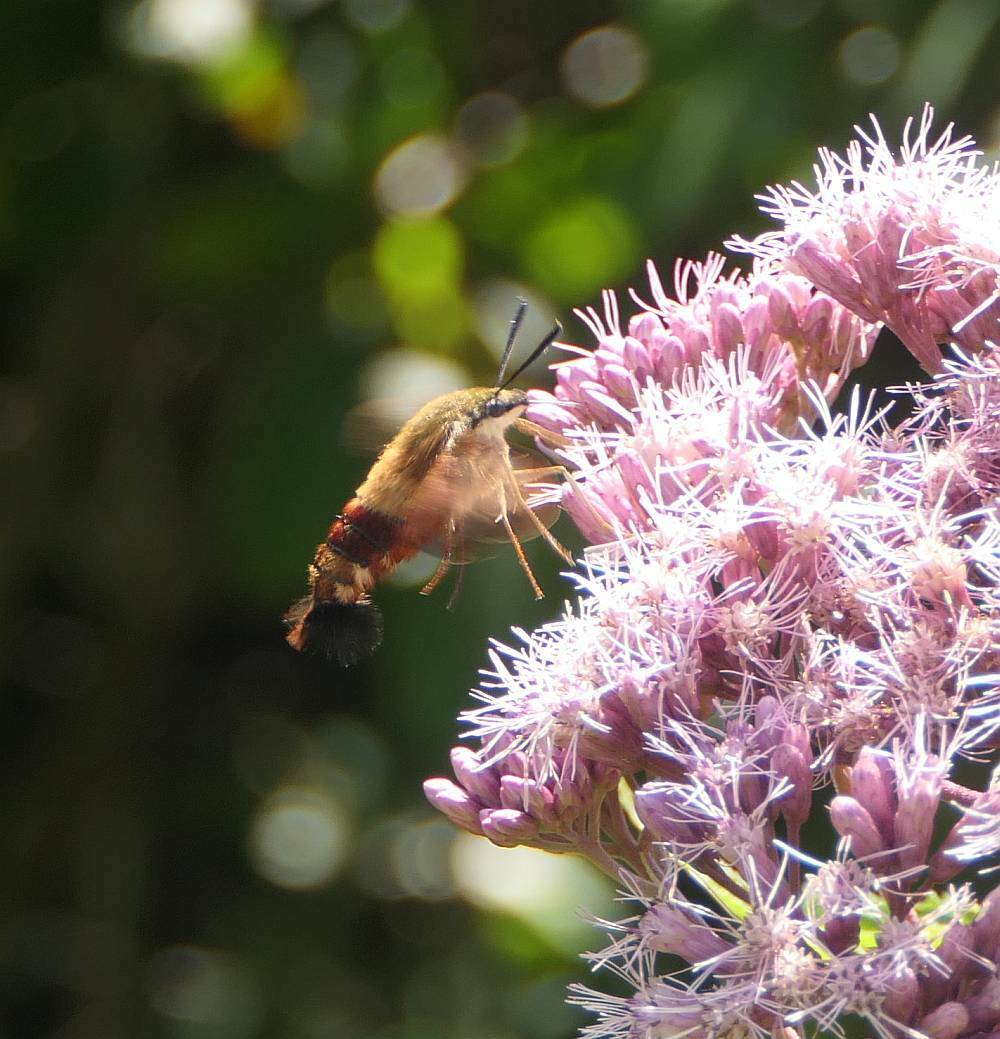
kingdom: Animalia
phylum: Arthropoda
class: Insecta
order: Lepidoptera
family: Sphingidae
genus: Hemaris
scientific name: Hemaris thysbe
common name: Common clear-wing
